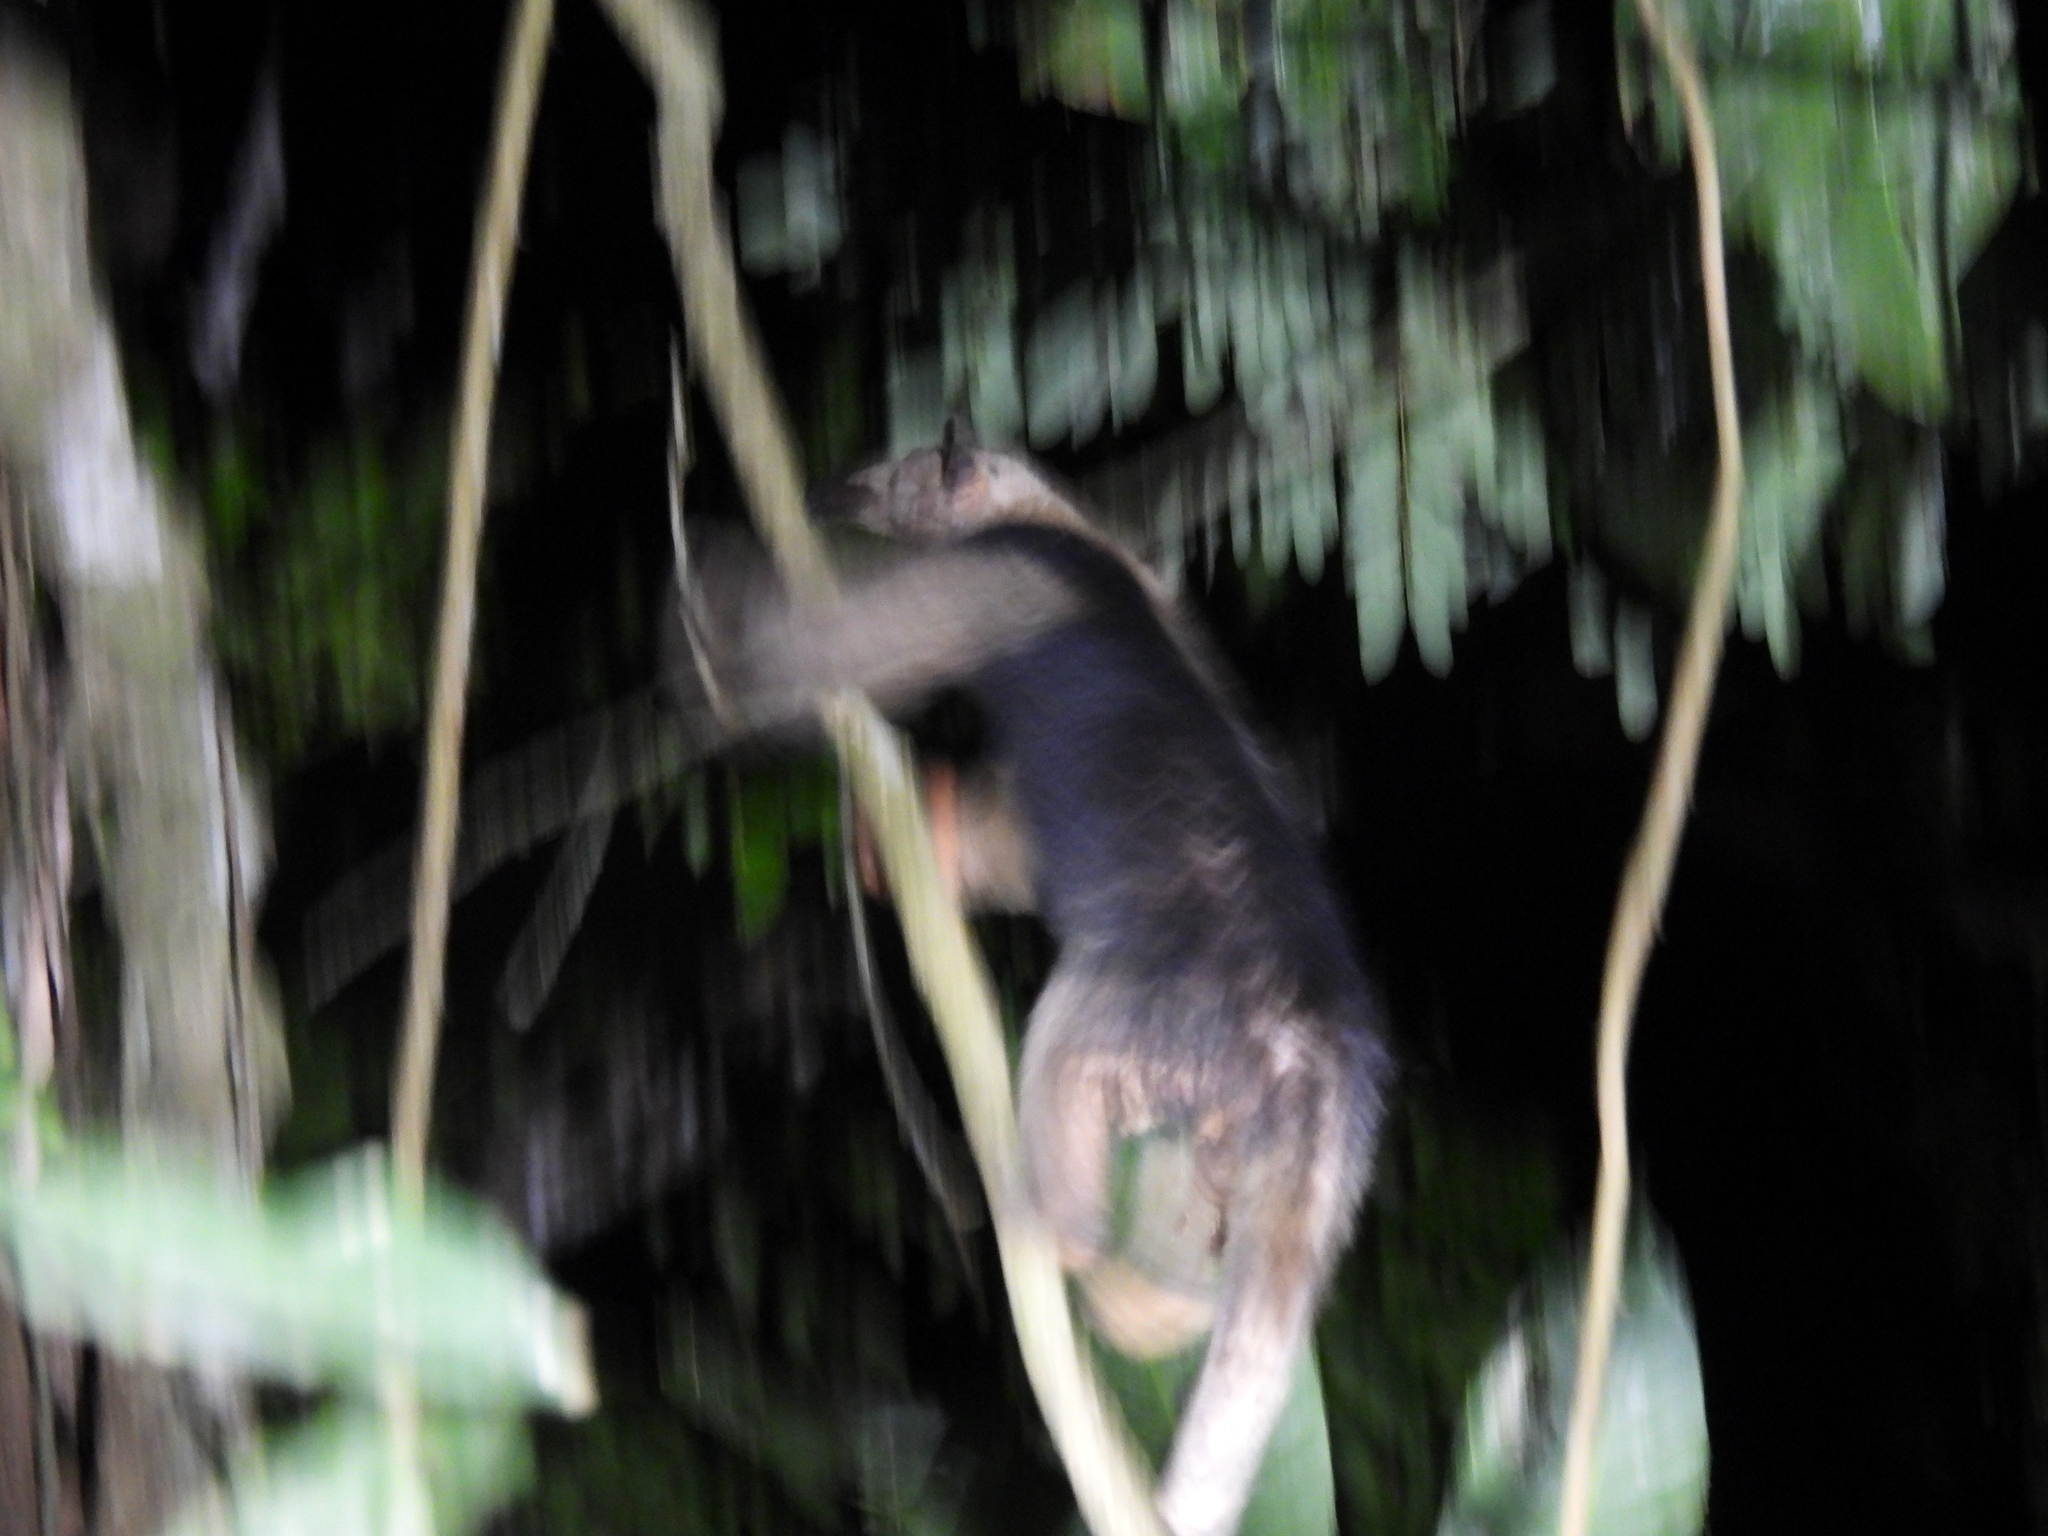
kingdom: Animalia
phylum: Chordata
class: Mammalia
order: Pilosa
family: Myrmecophagidae
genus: Tamandua
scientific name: Tamandua mexicana
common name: Northern tamandua
